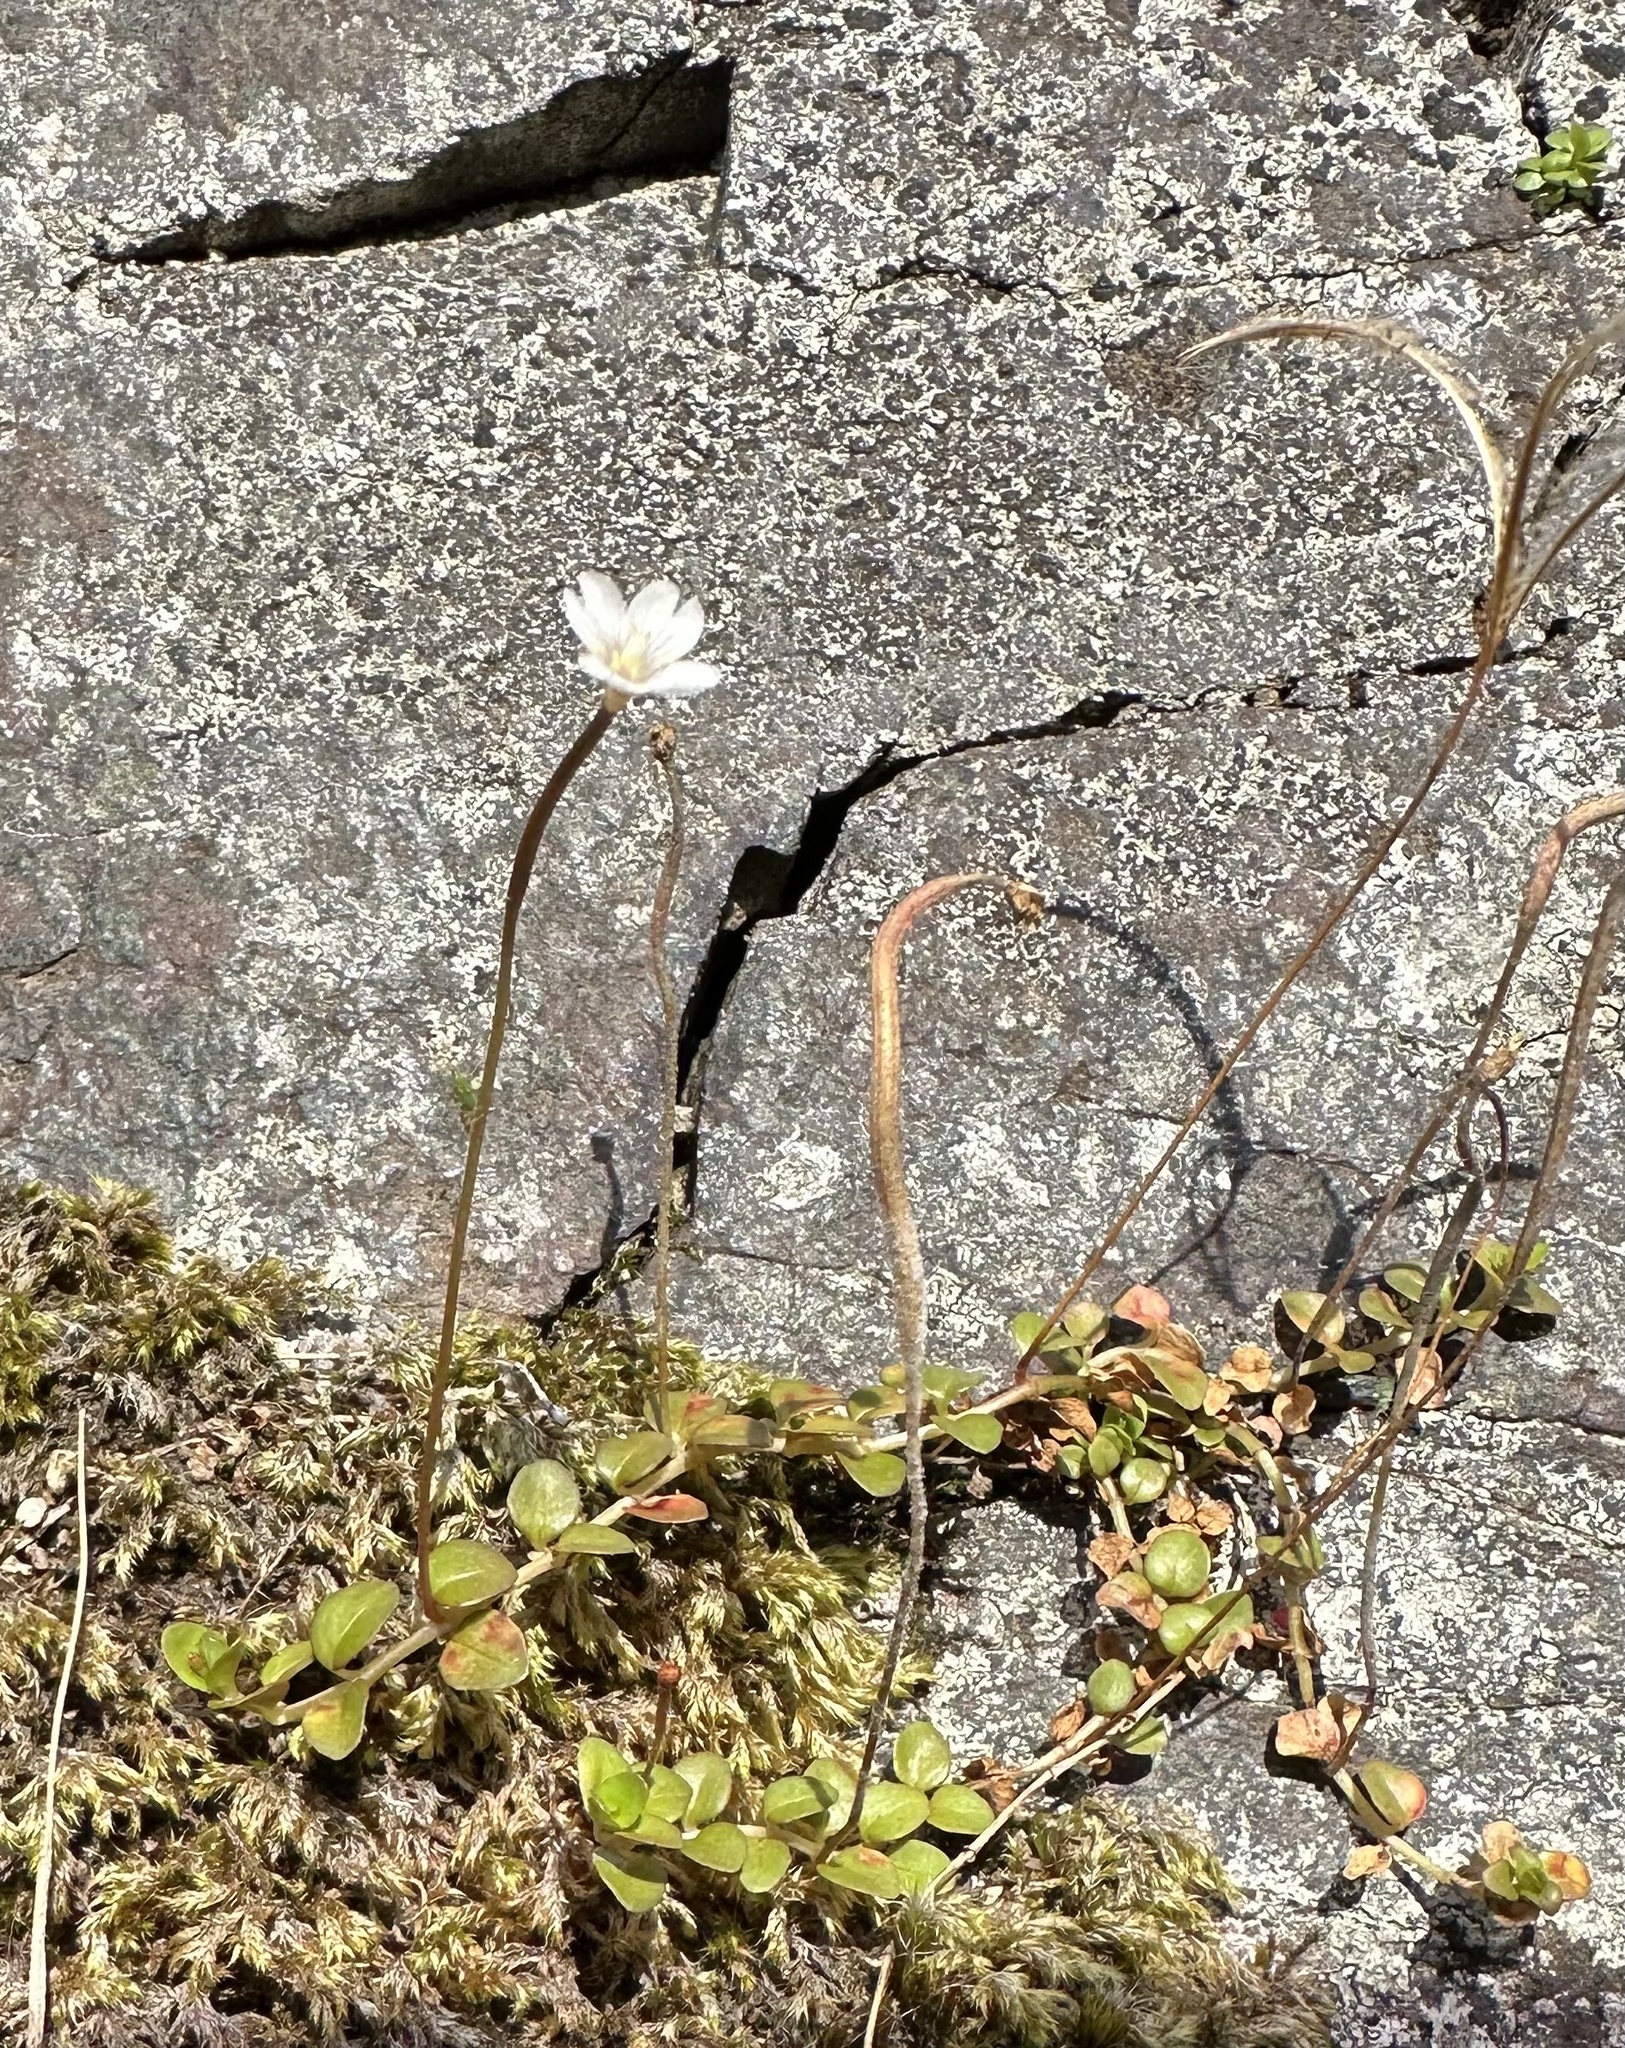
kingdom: Plantae
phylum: Tracheophyta
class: Magnoliopsida
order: Myrtales
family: Onagraceae
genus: Epilobium
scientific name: Epilobium brunnescens
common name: New zealand willowherb
